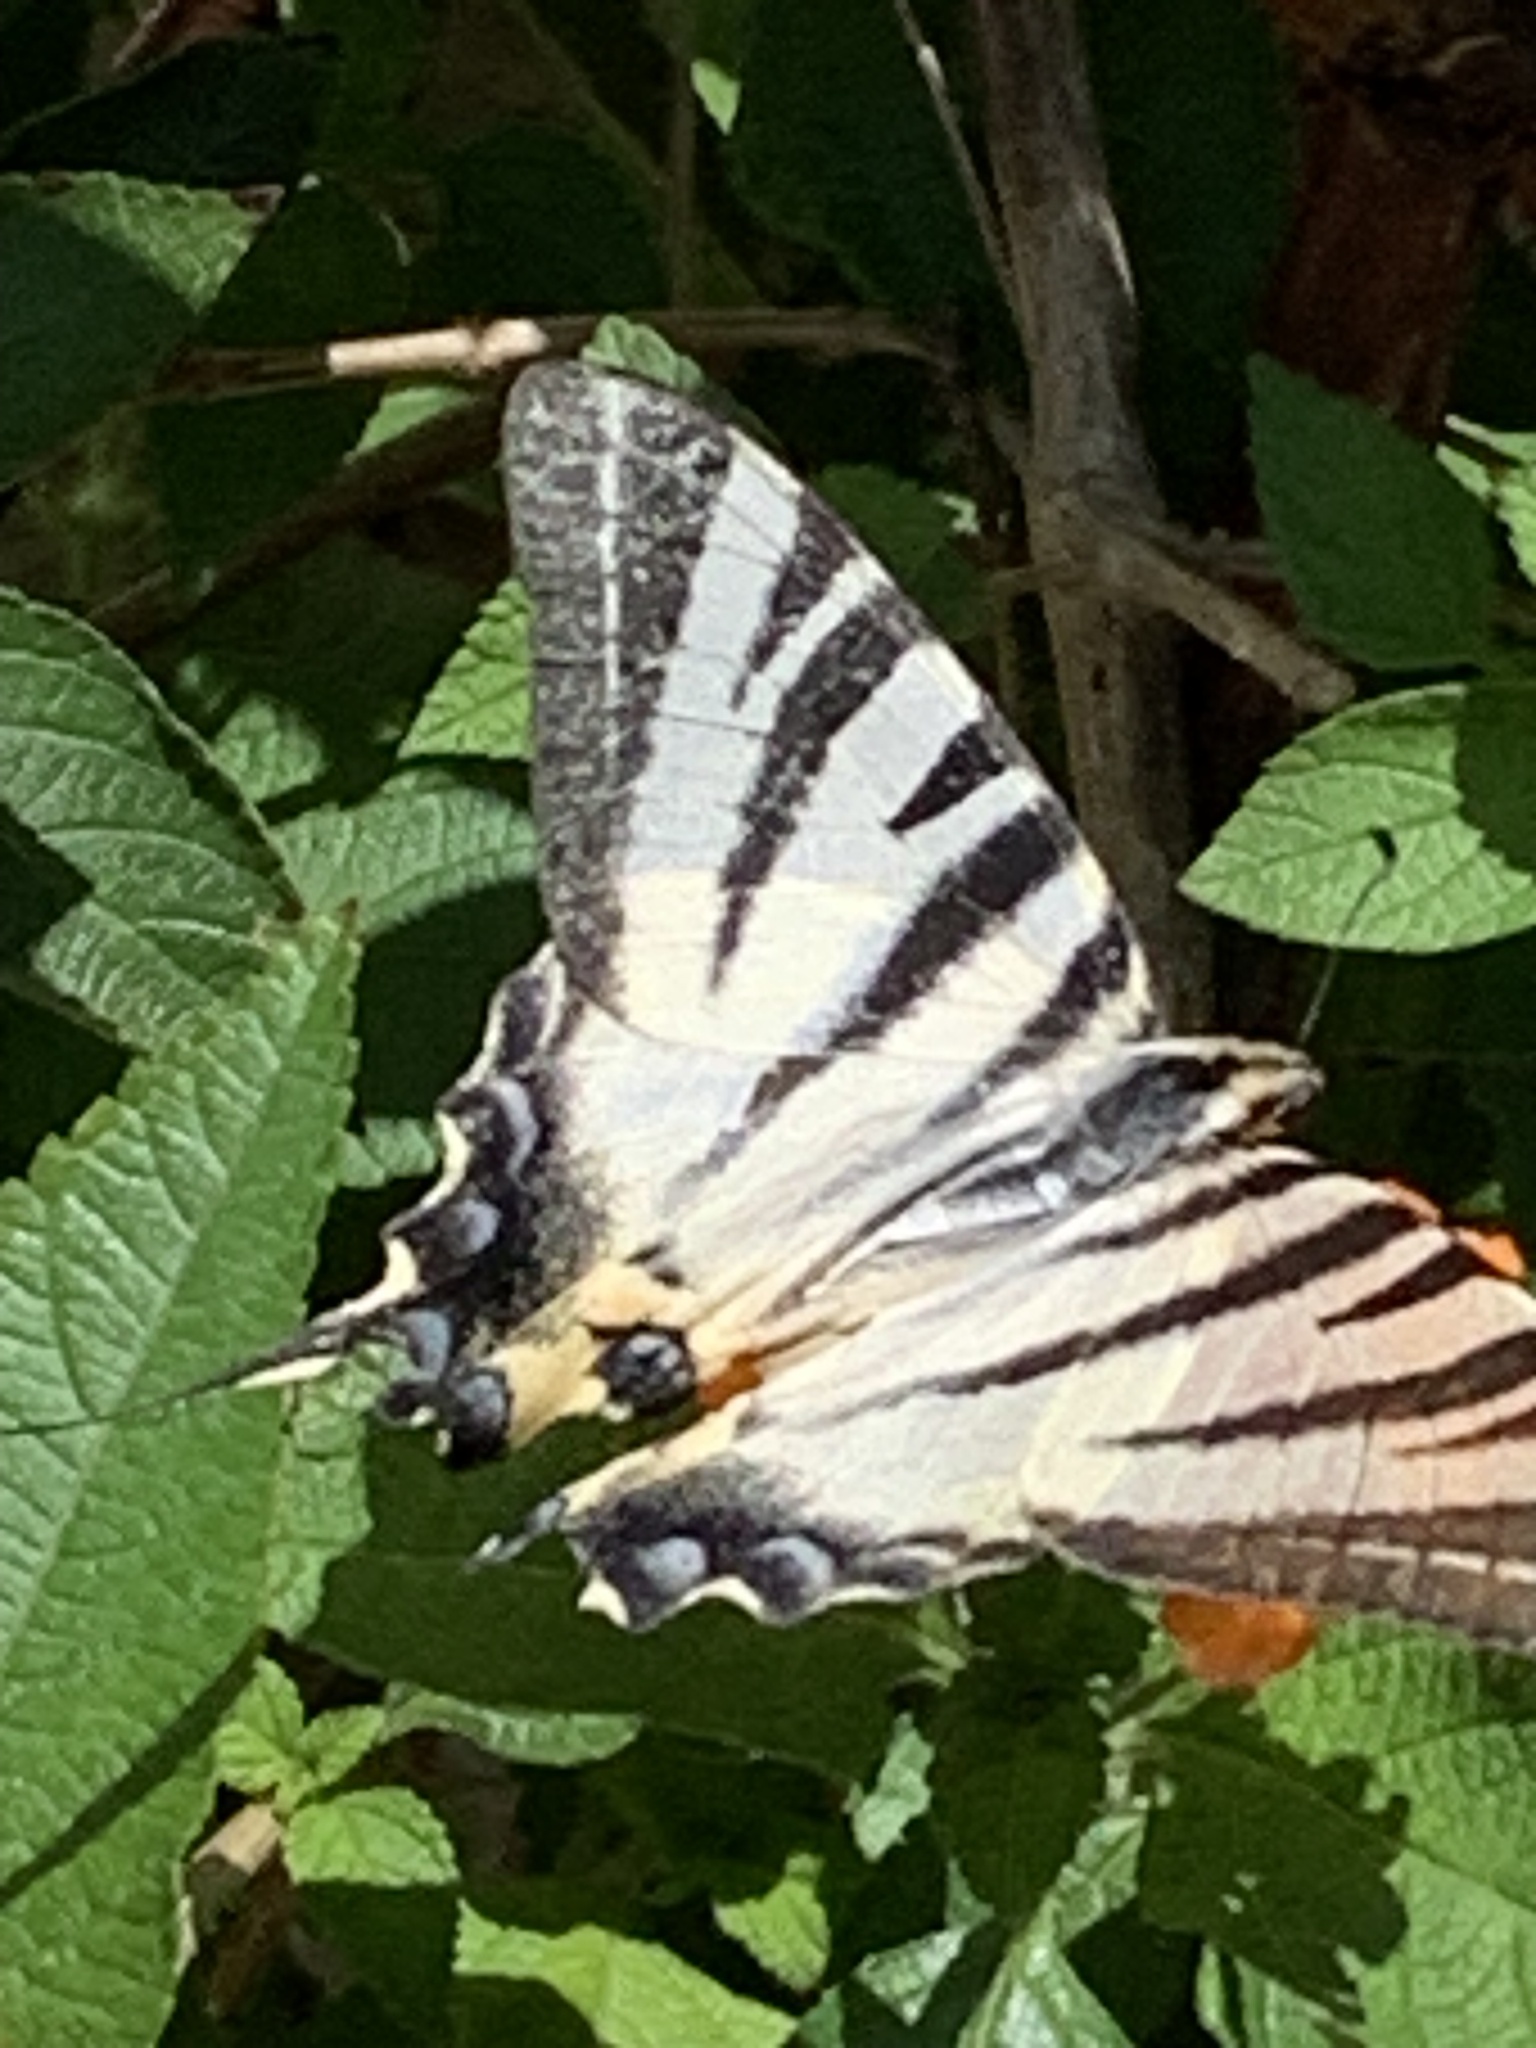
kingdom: Animalia
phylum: Arthropoda
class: Insecta
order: Lepidoptera
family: Papilionidae
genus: Iphiclides
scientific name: Iphiclides podalirius
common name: Scarce swallowtail
